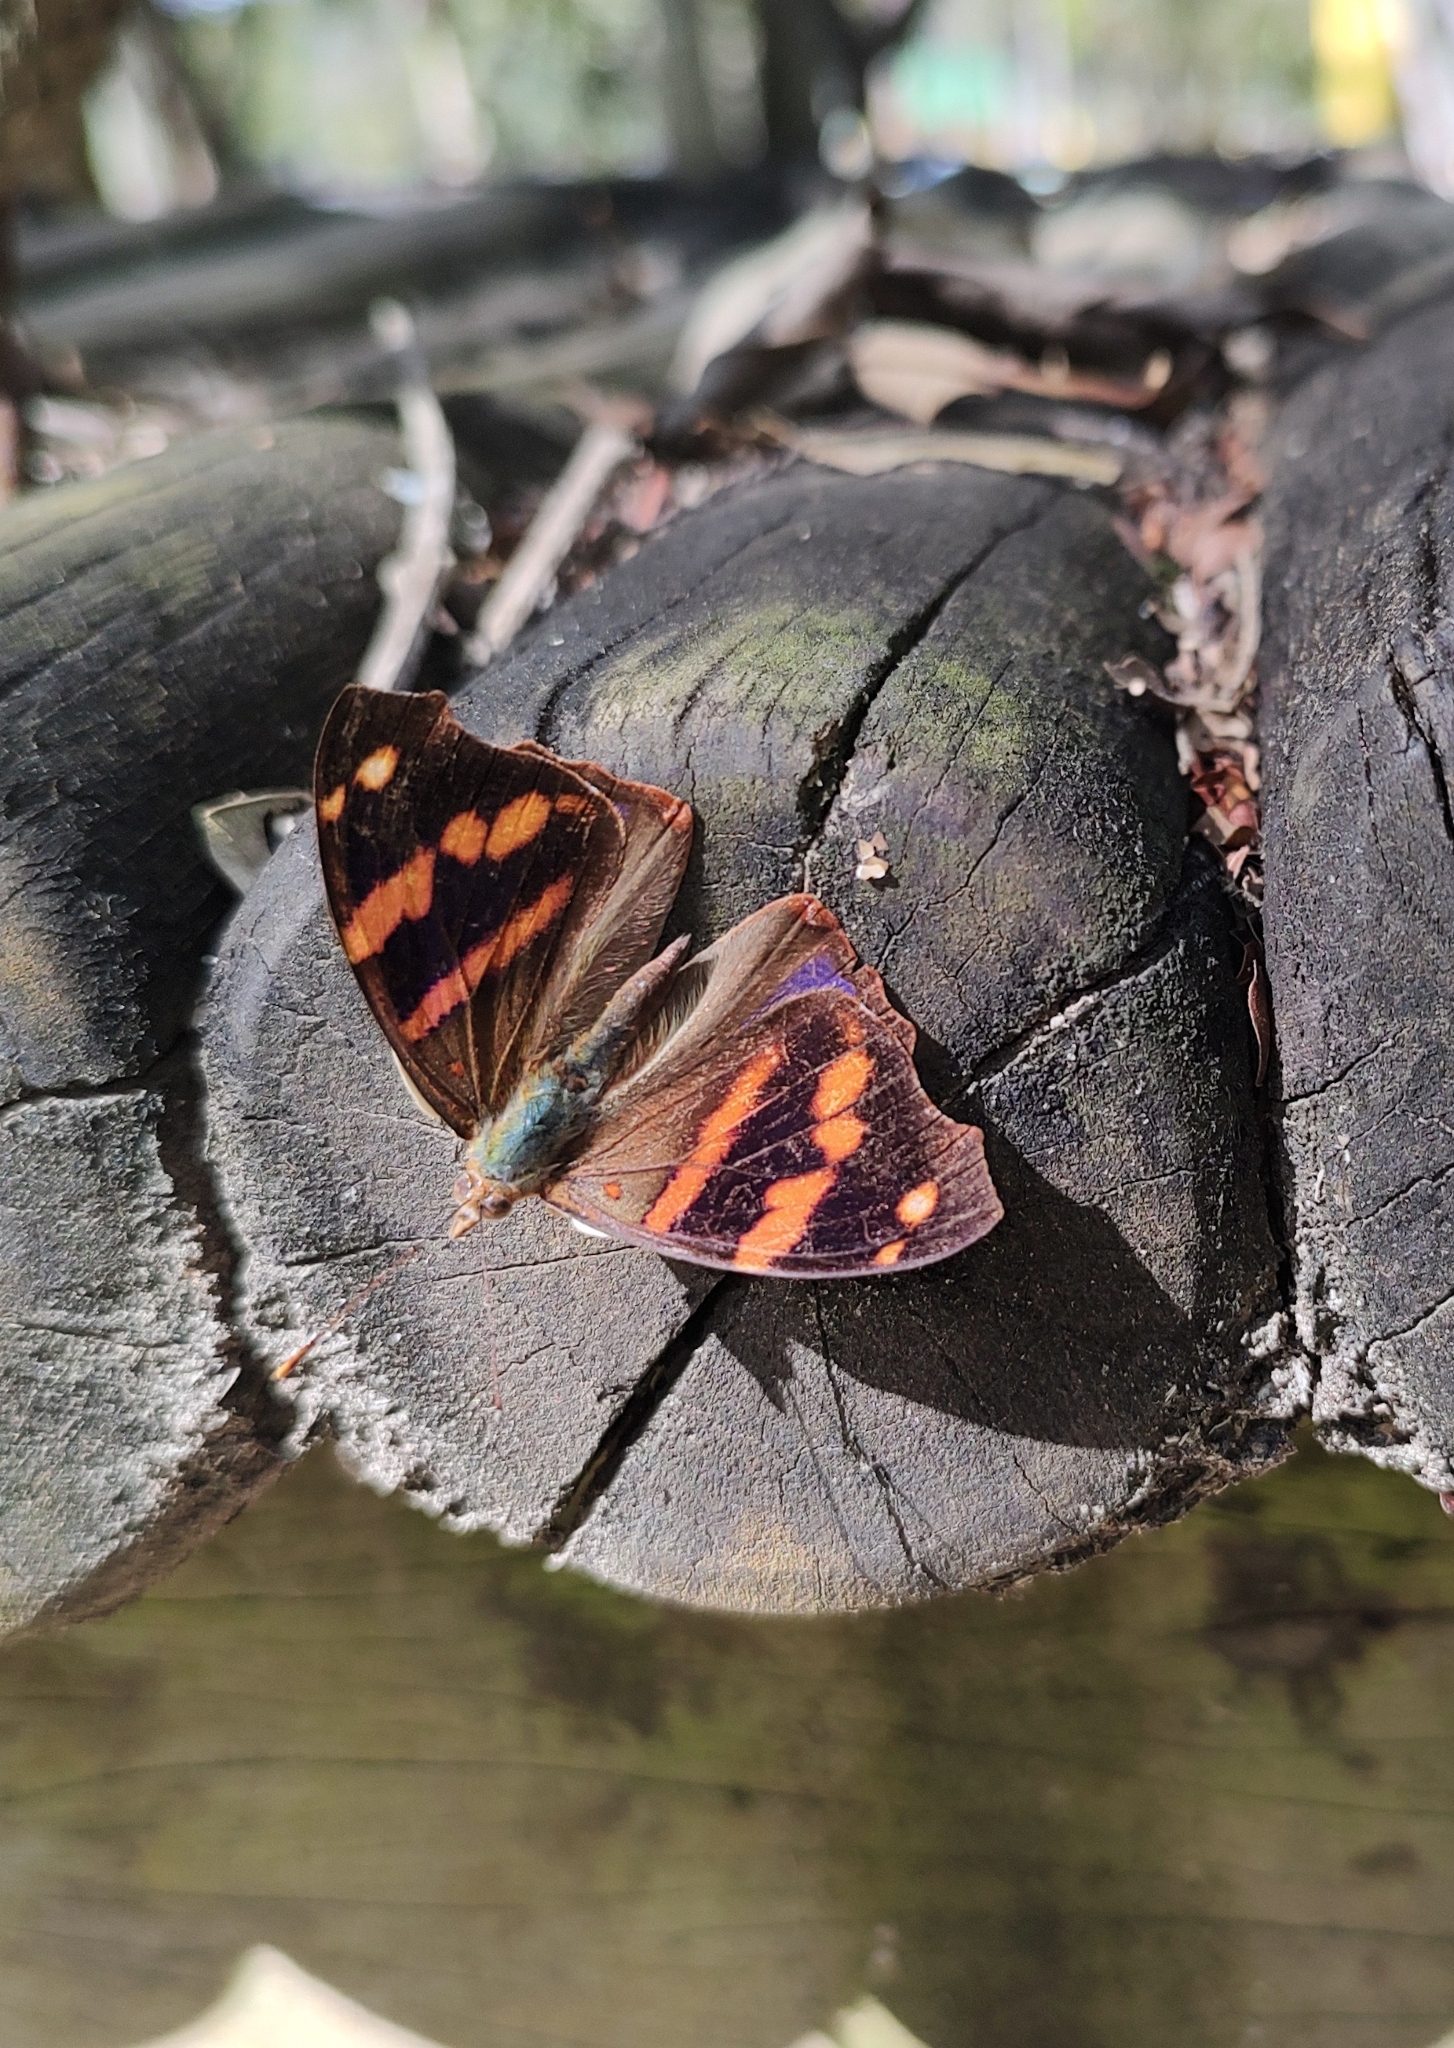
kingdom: Animalia
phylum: Arthropoda
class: Insecta
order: Lepidoptera
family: Nymphalidae
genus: Epiphile
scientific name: Epiphile orea
